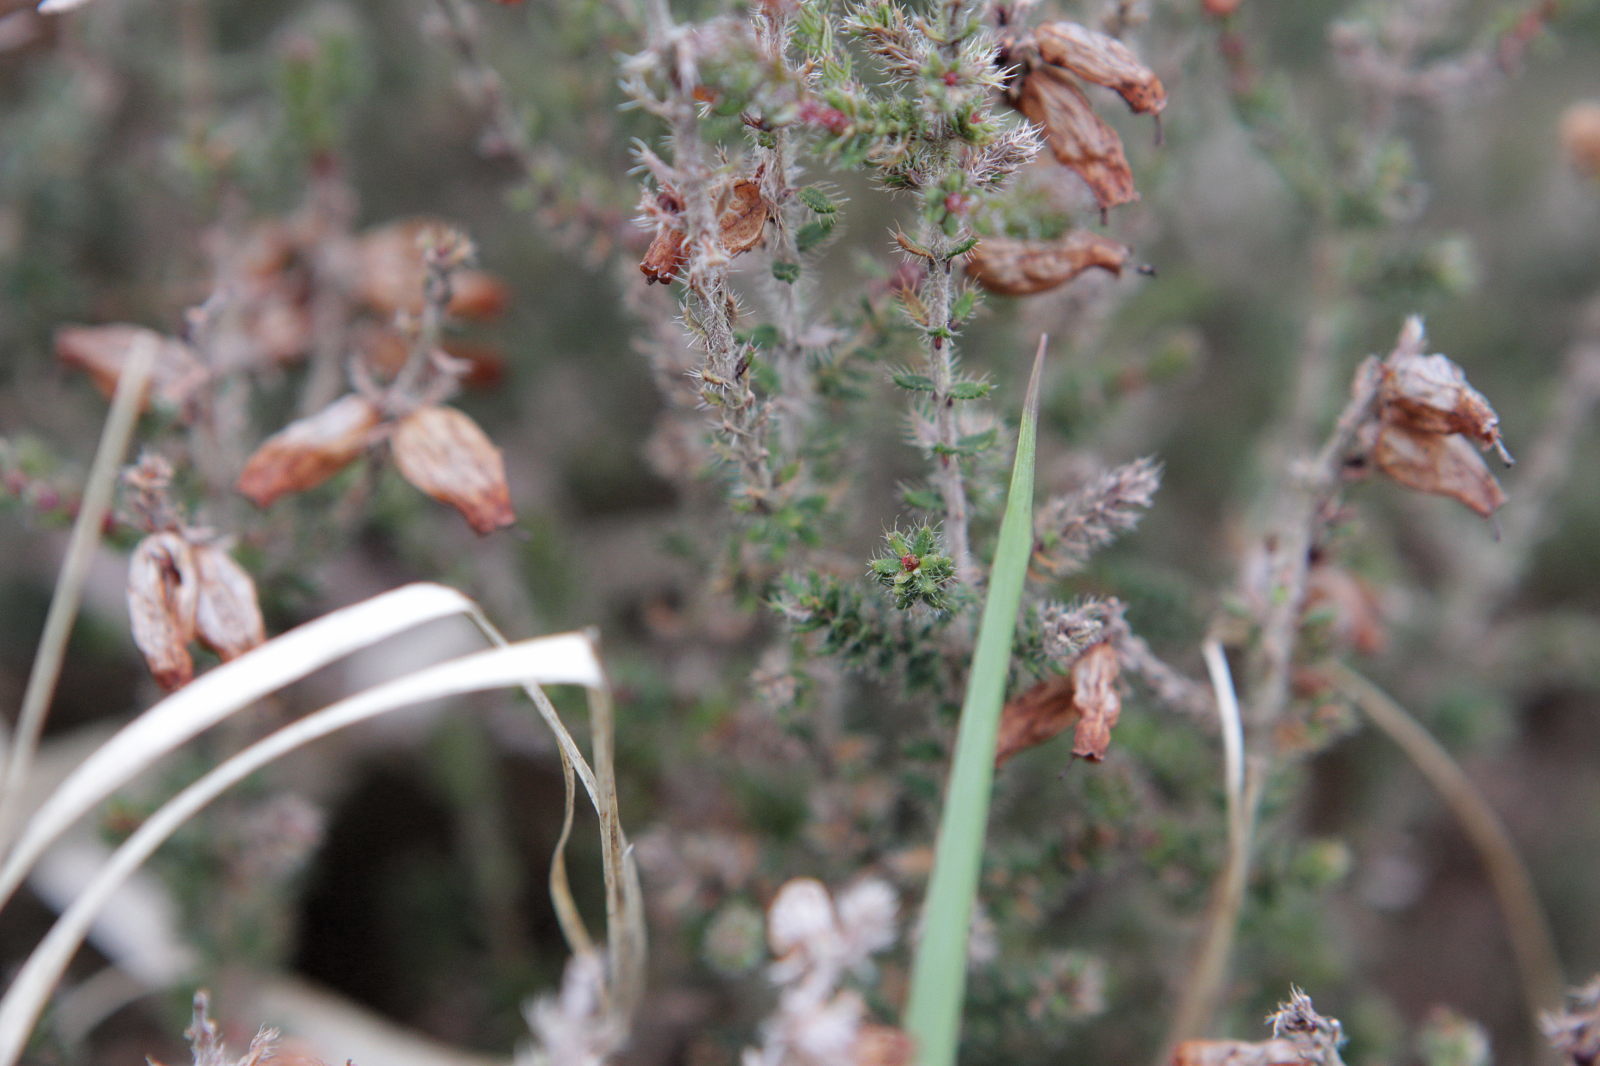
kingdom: Plantae
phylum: Tracheophyta
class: Magnoliopsida
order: Ericales
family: Ericaceae
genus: Erica
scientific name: Erica ciliaris
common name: Dorset heath
